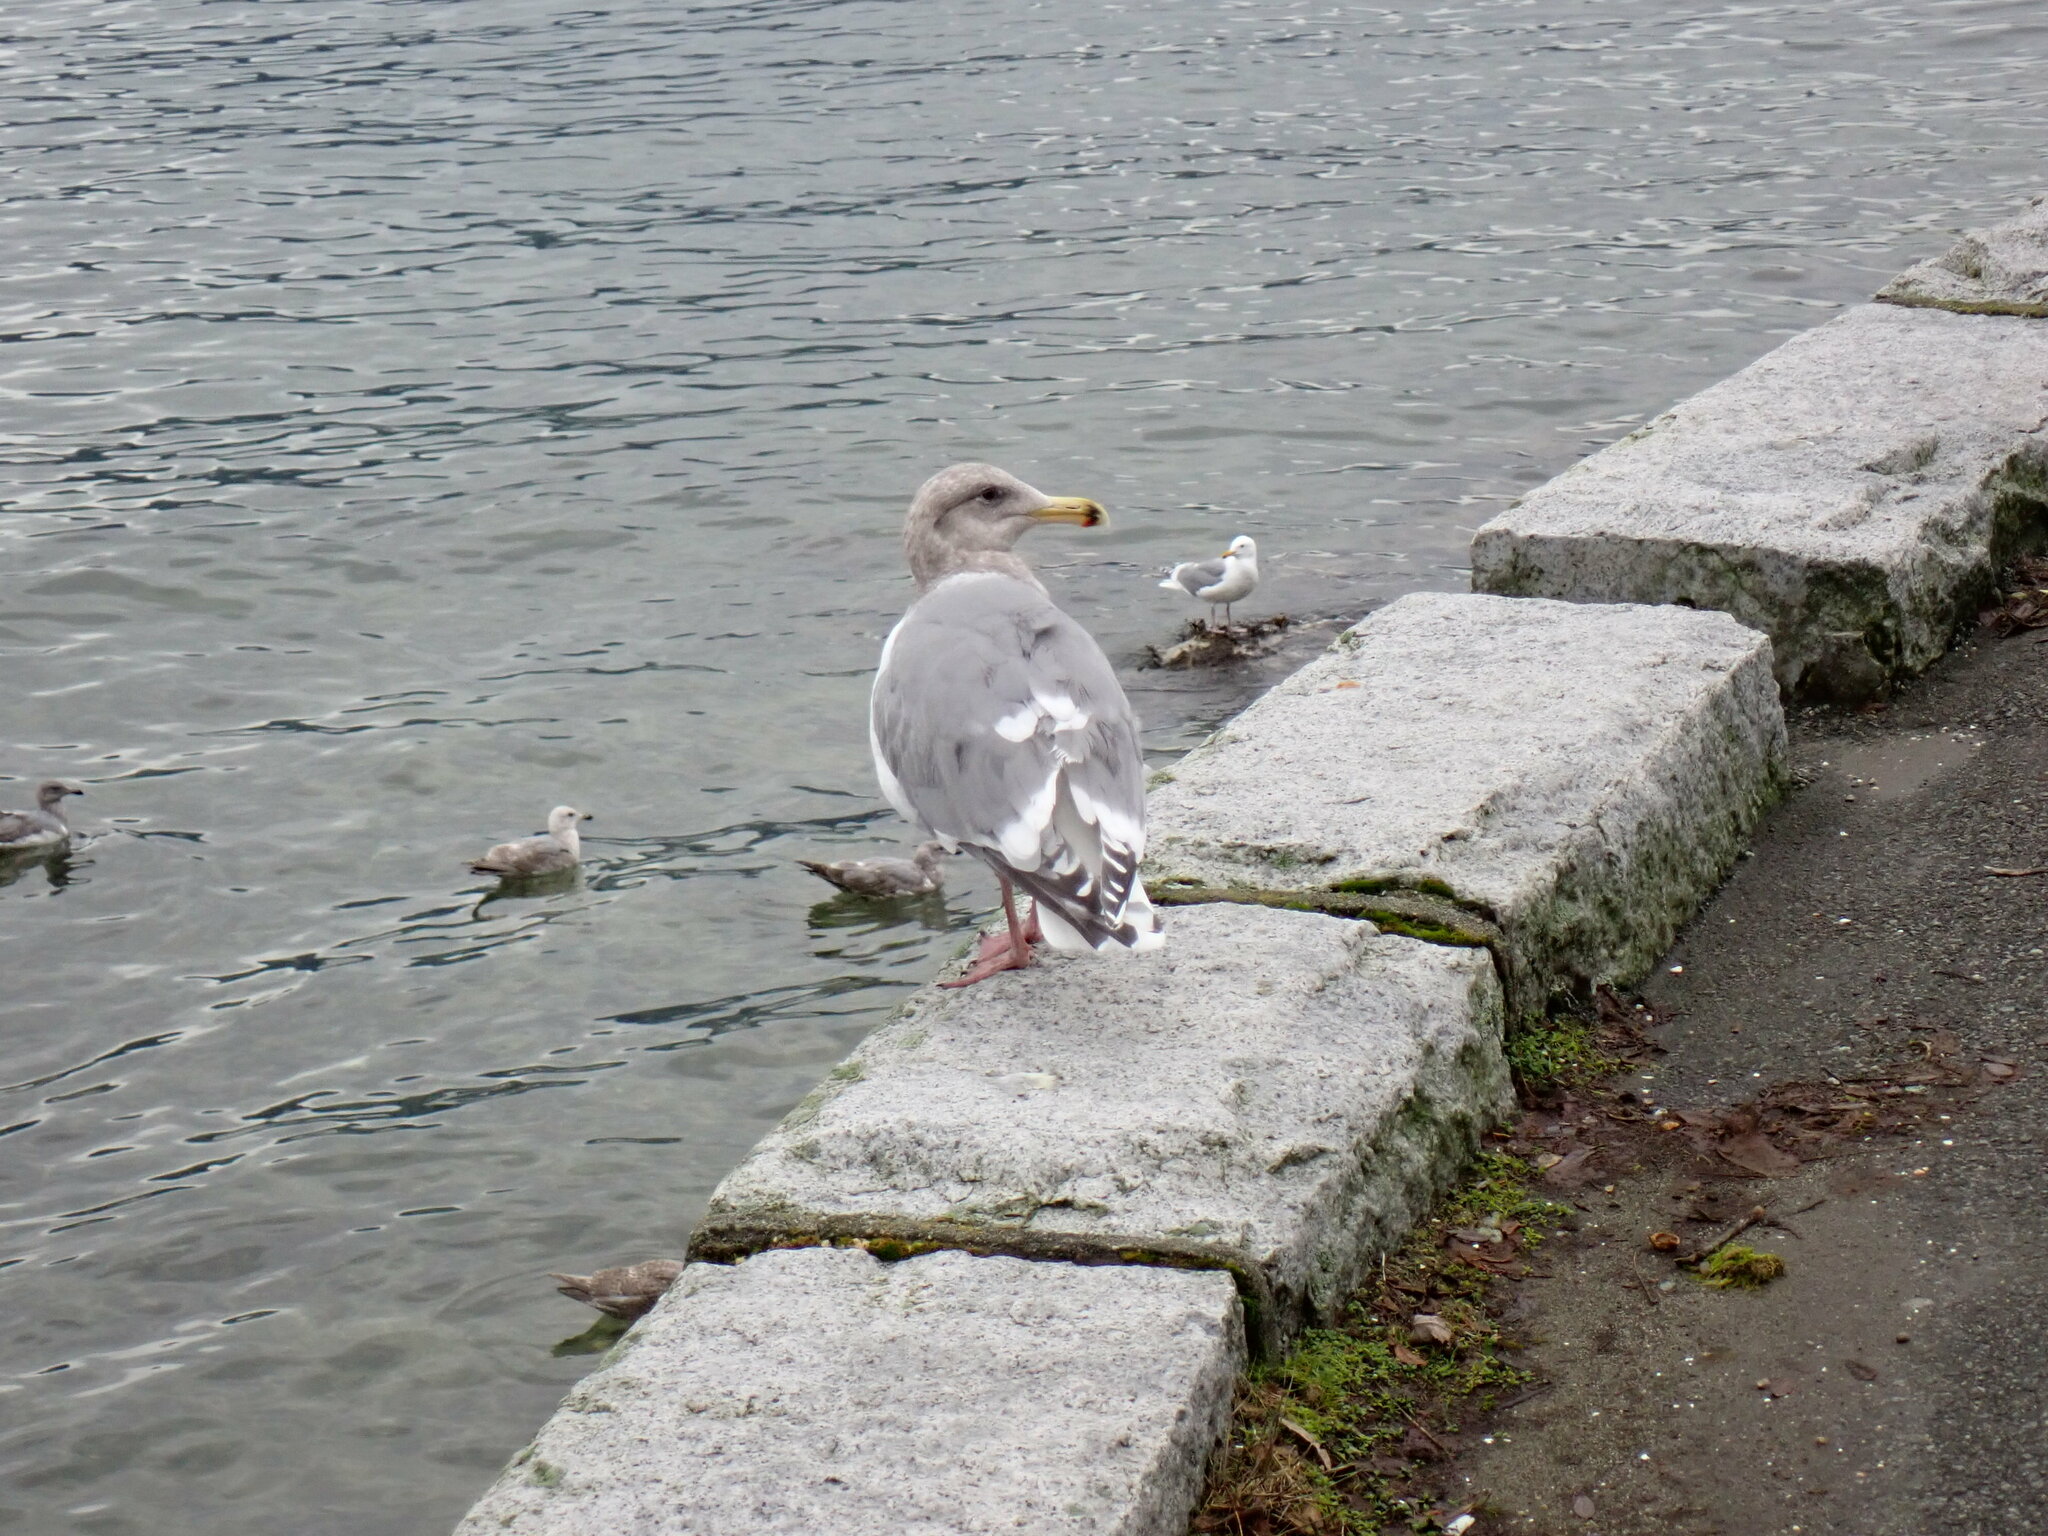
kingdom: Animalia
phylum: Chordata
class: Aves
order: Charadriiformes
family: Laridae
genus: Larus
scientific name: Larus
